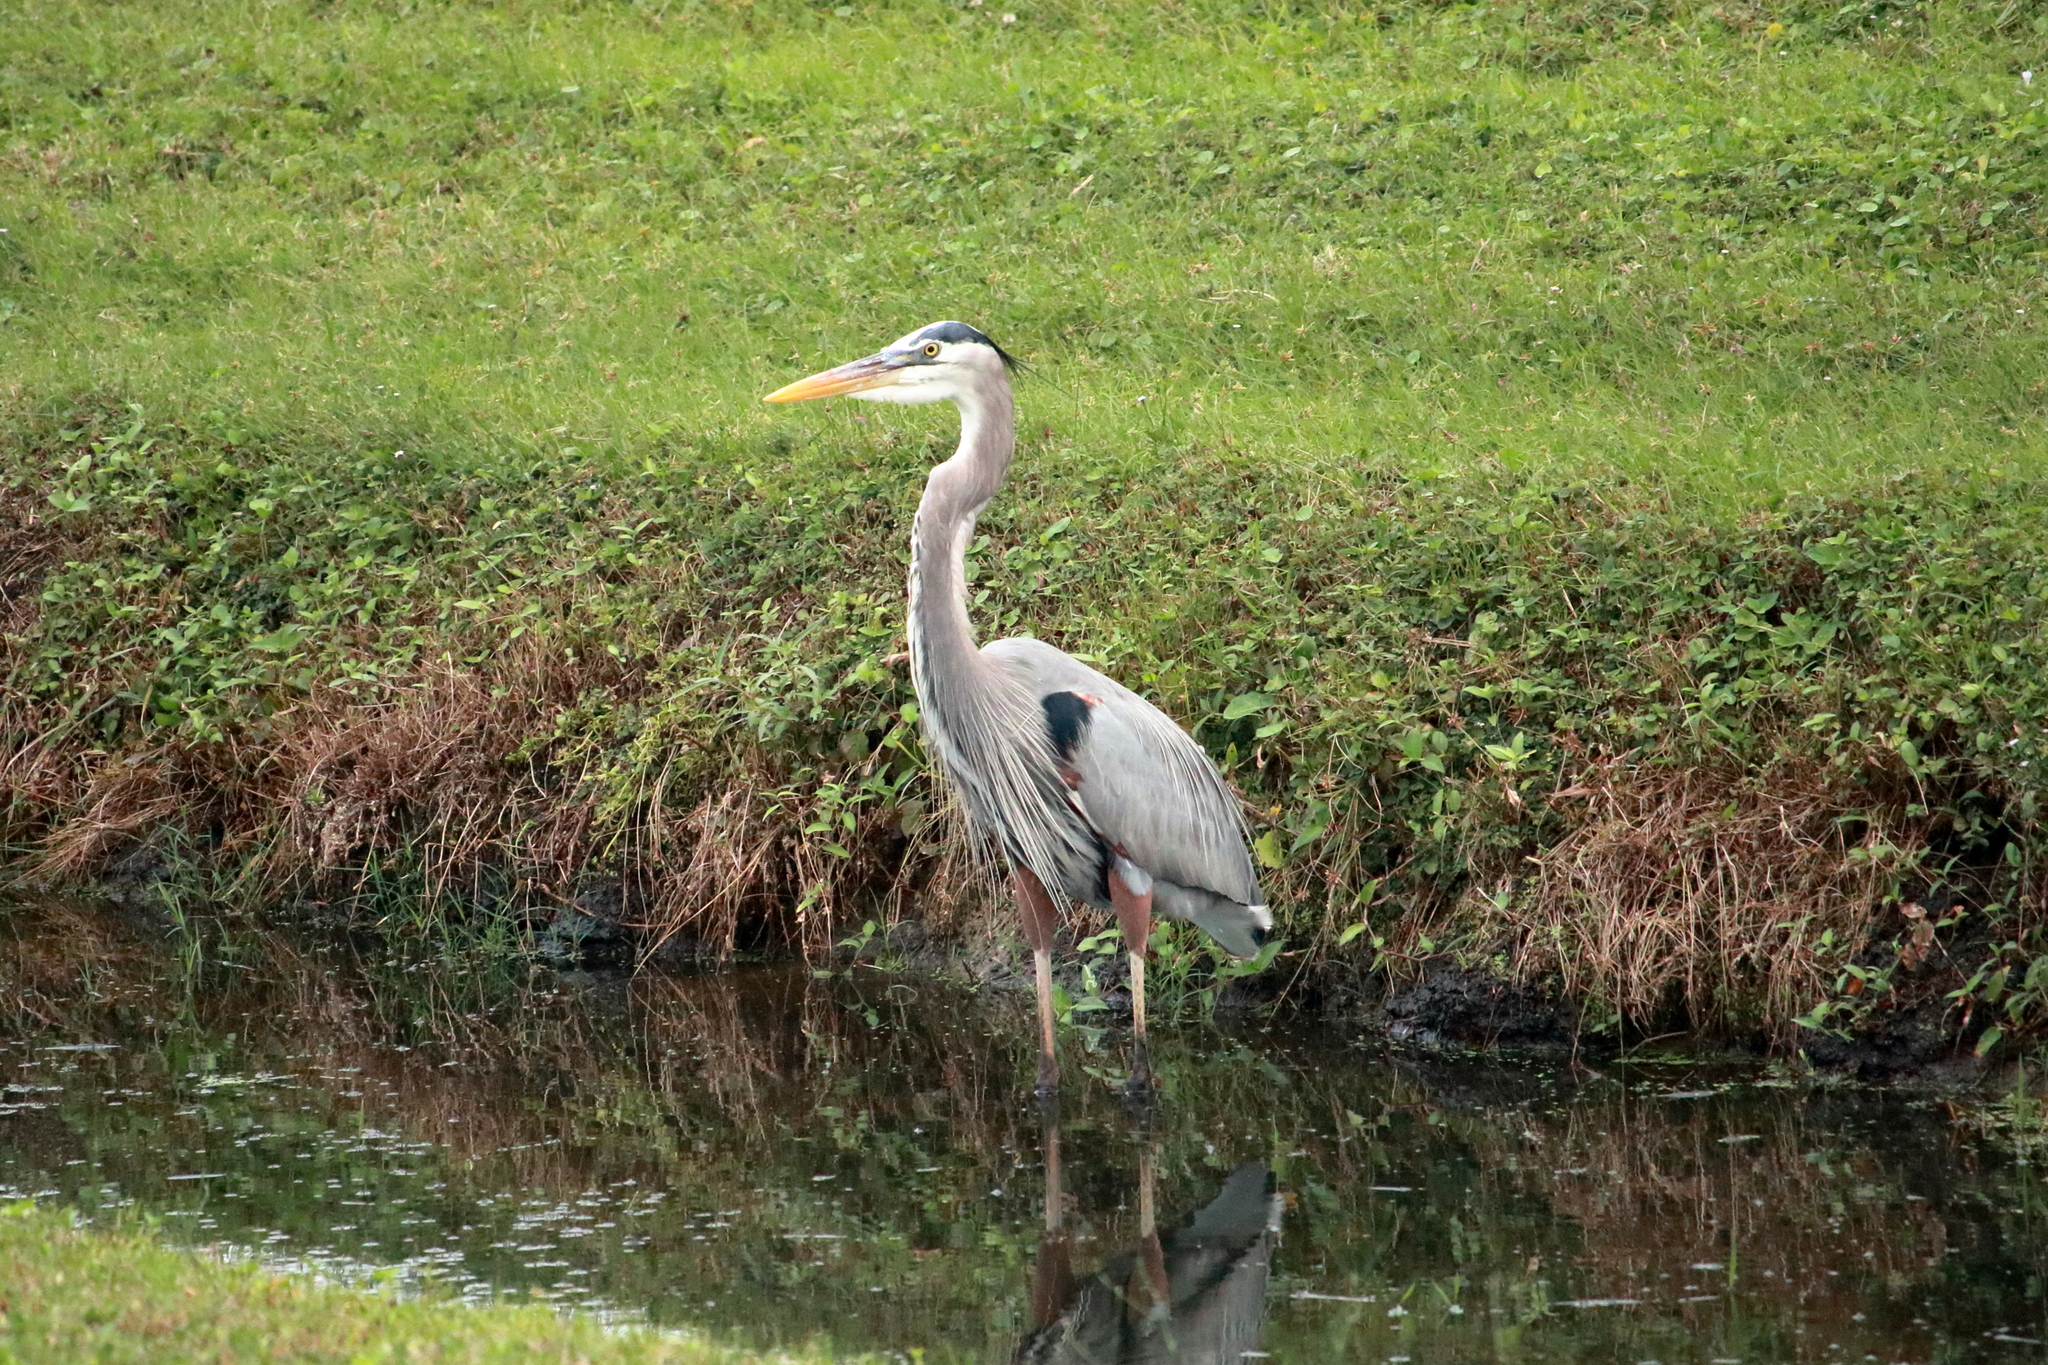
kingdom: Animalia
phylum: Chordata
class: Aves
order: Pelecaniformes
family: Ardeidae
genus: Ardea
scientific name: Ardea herodias
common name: Great blue heron
